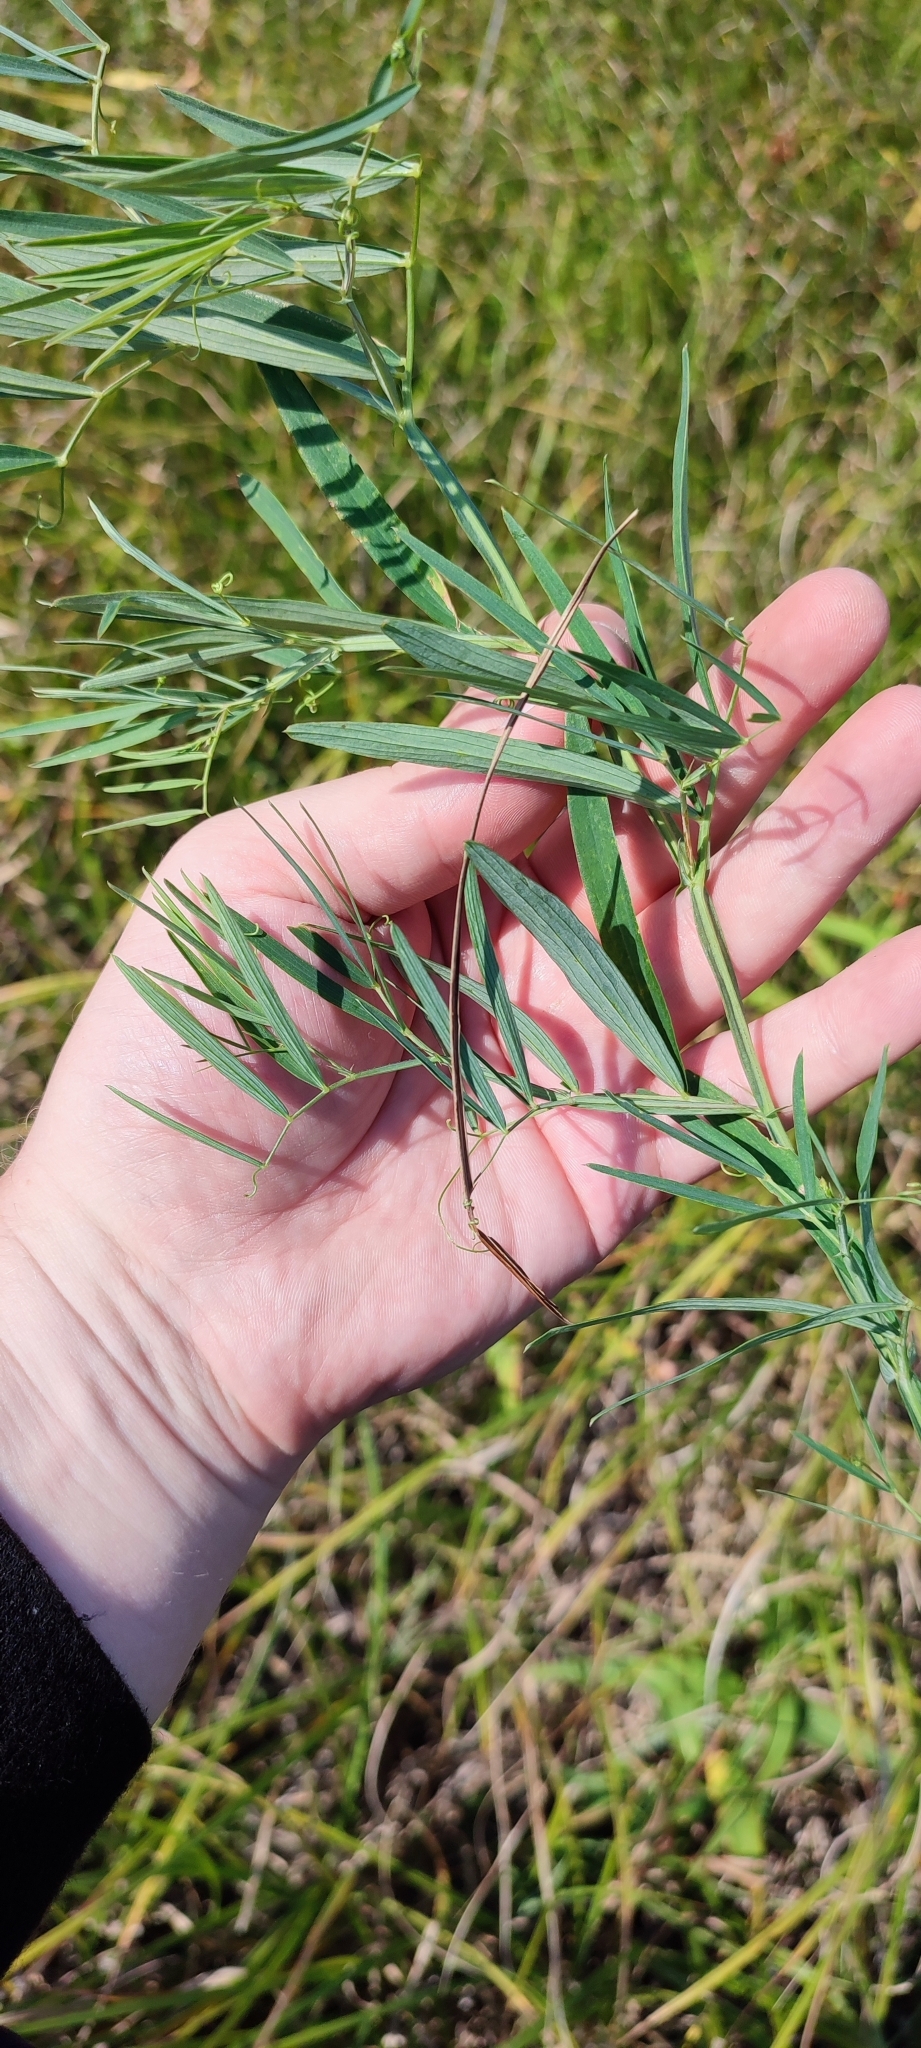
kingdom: Plantae
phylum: Tracheophyta
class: Magnoliopsida
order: Fabales
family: Fabaceae
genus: Lathyrus
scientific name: Lathyrus palustris
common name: Marsh pea
